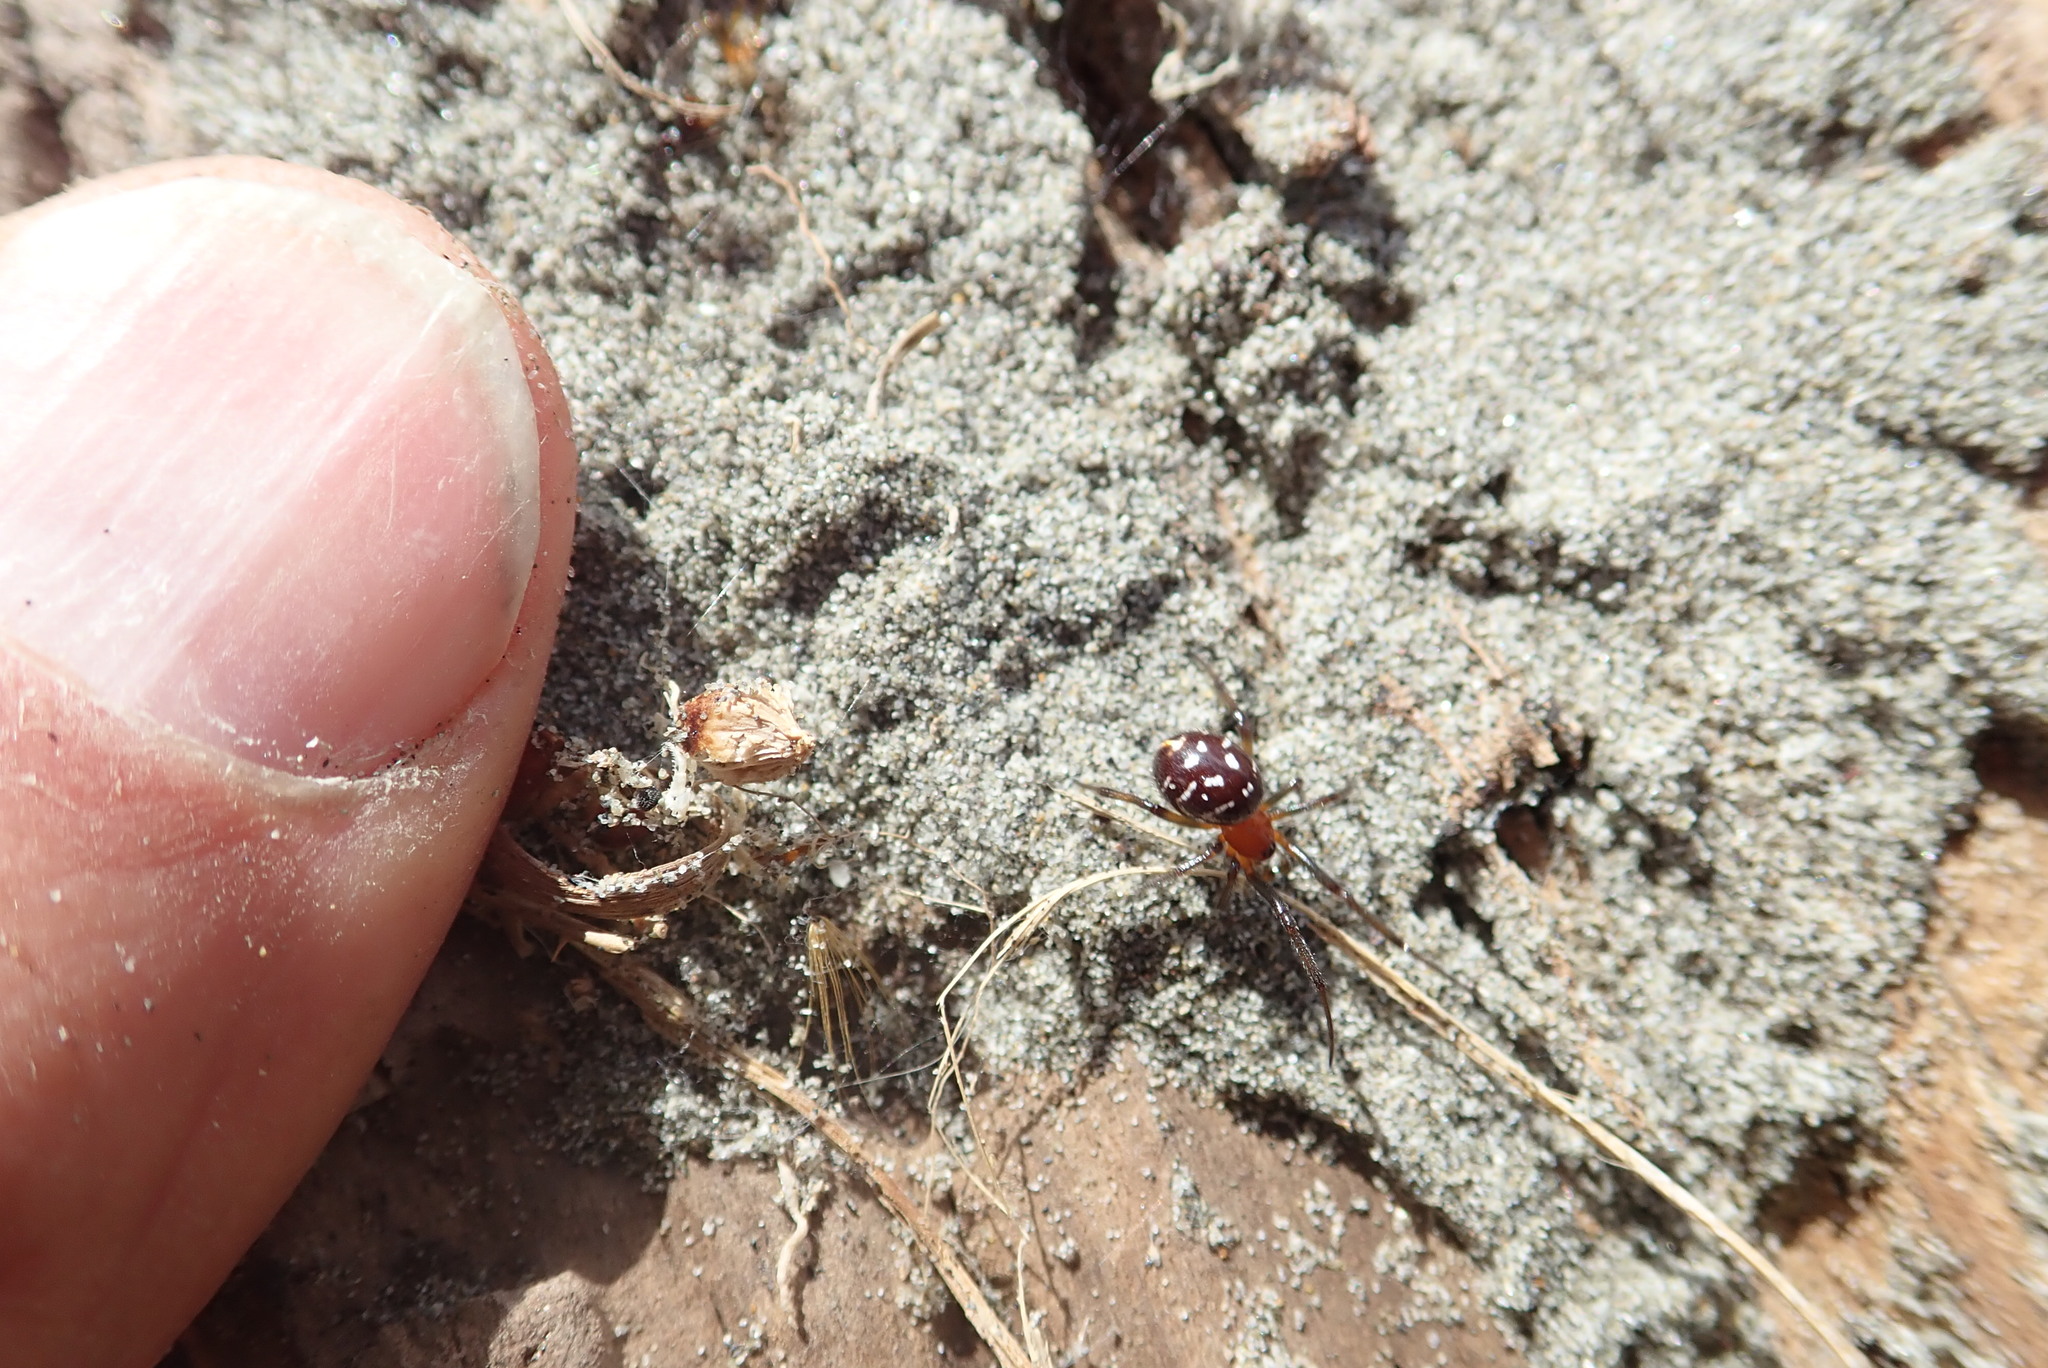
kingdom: Animalia
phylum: Arthropoda
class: Arachnida
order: Araneae
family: Theridiidae
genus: Steatoda
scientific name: Steatoda capensis
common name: Cobweb weaver
